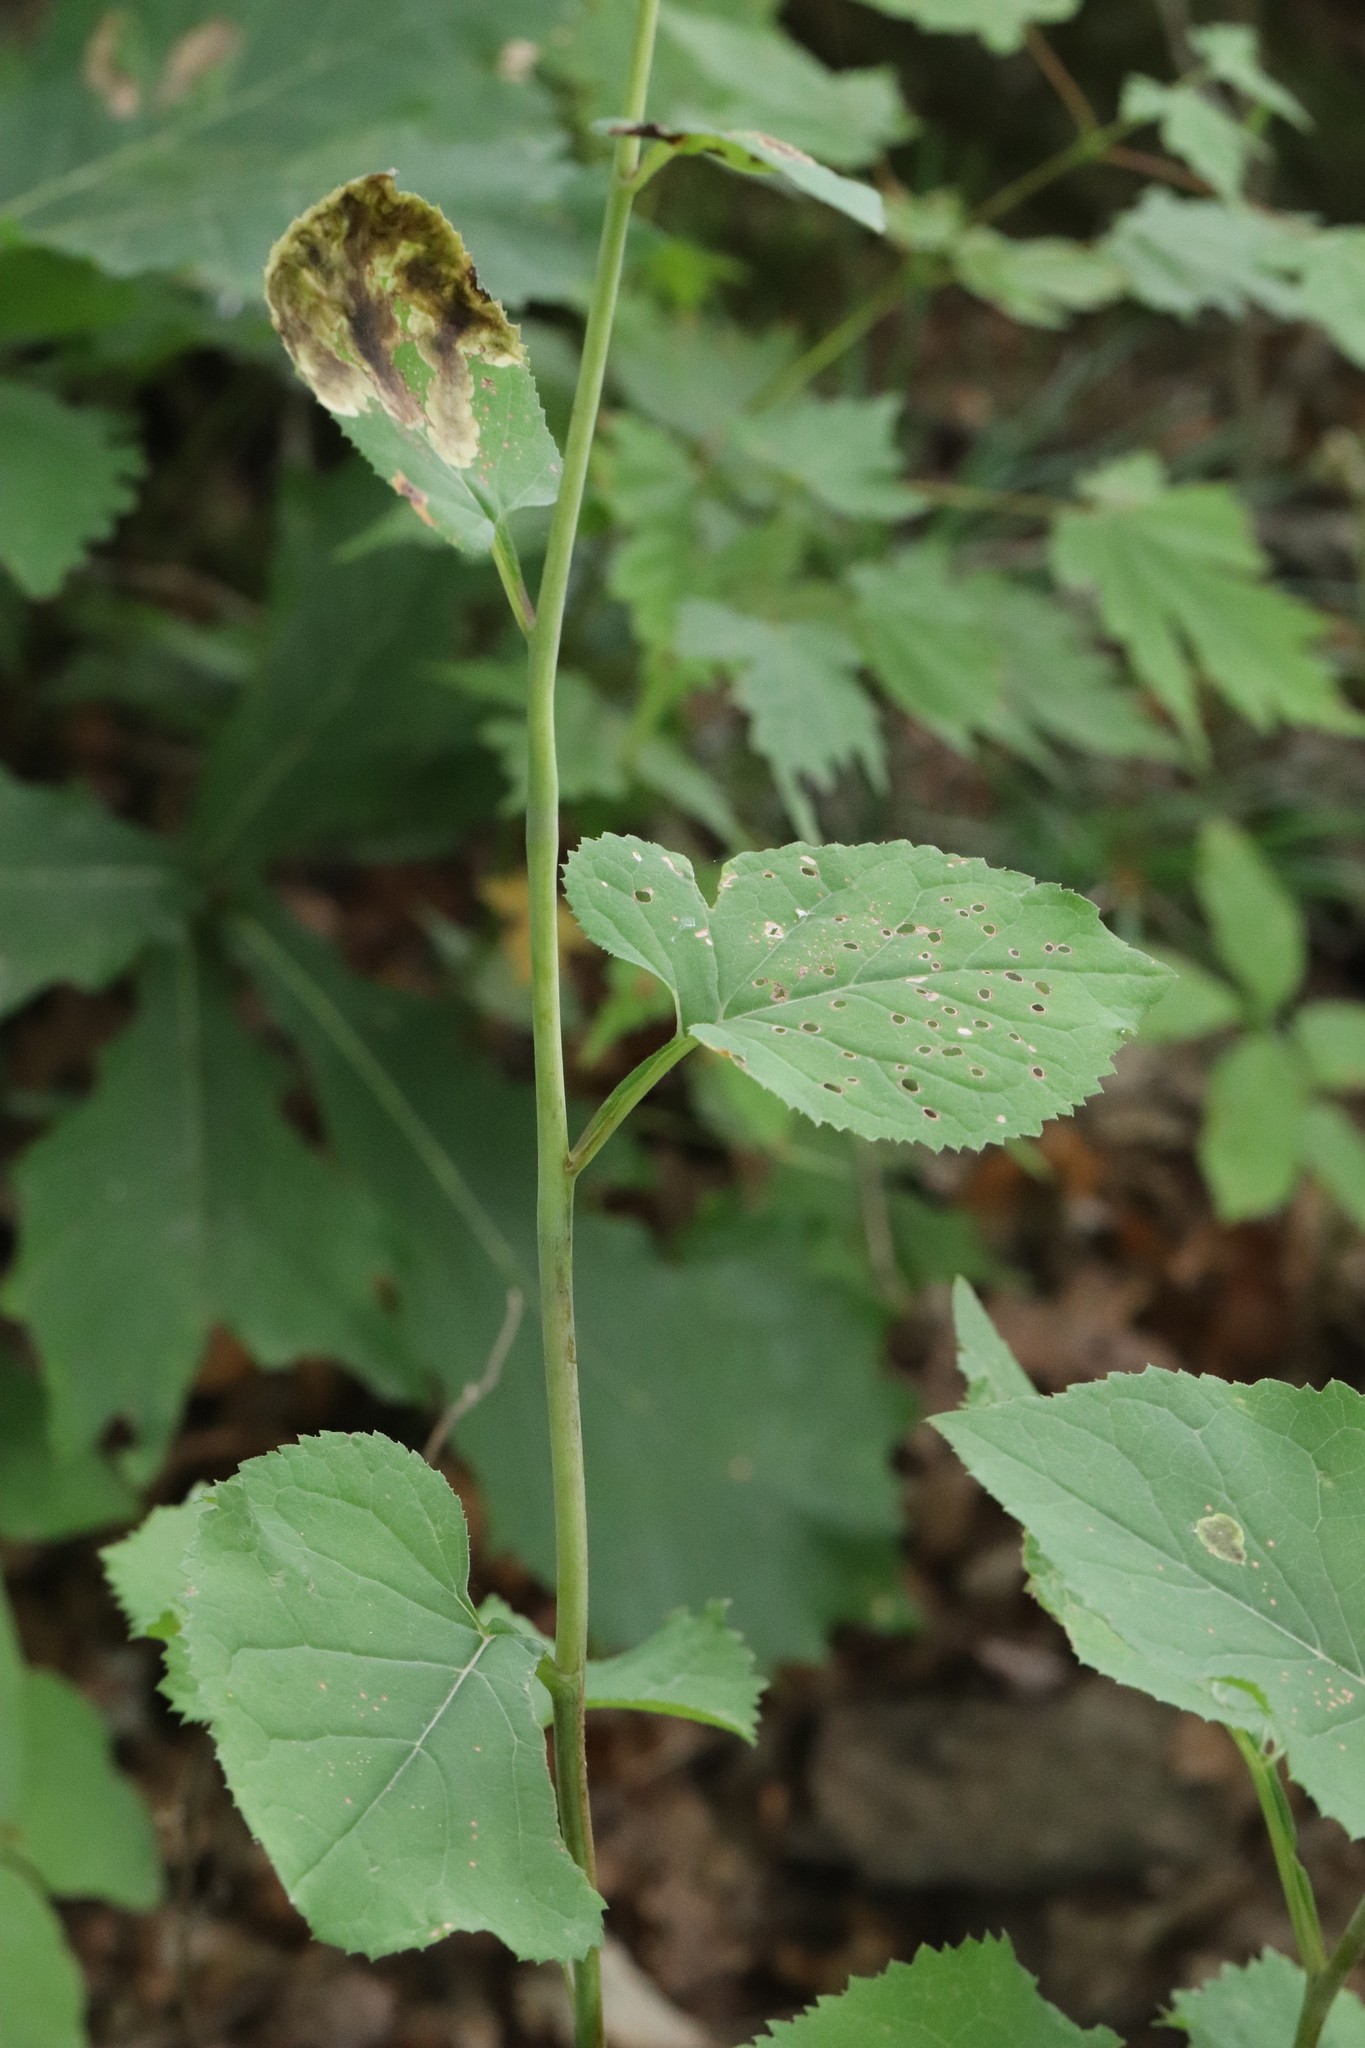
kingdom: Plantae
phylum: Tracheophyta
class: Magnoliopsida
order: Asterales
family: Asteraceae
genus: Aster
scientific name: Aster scaber
